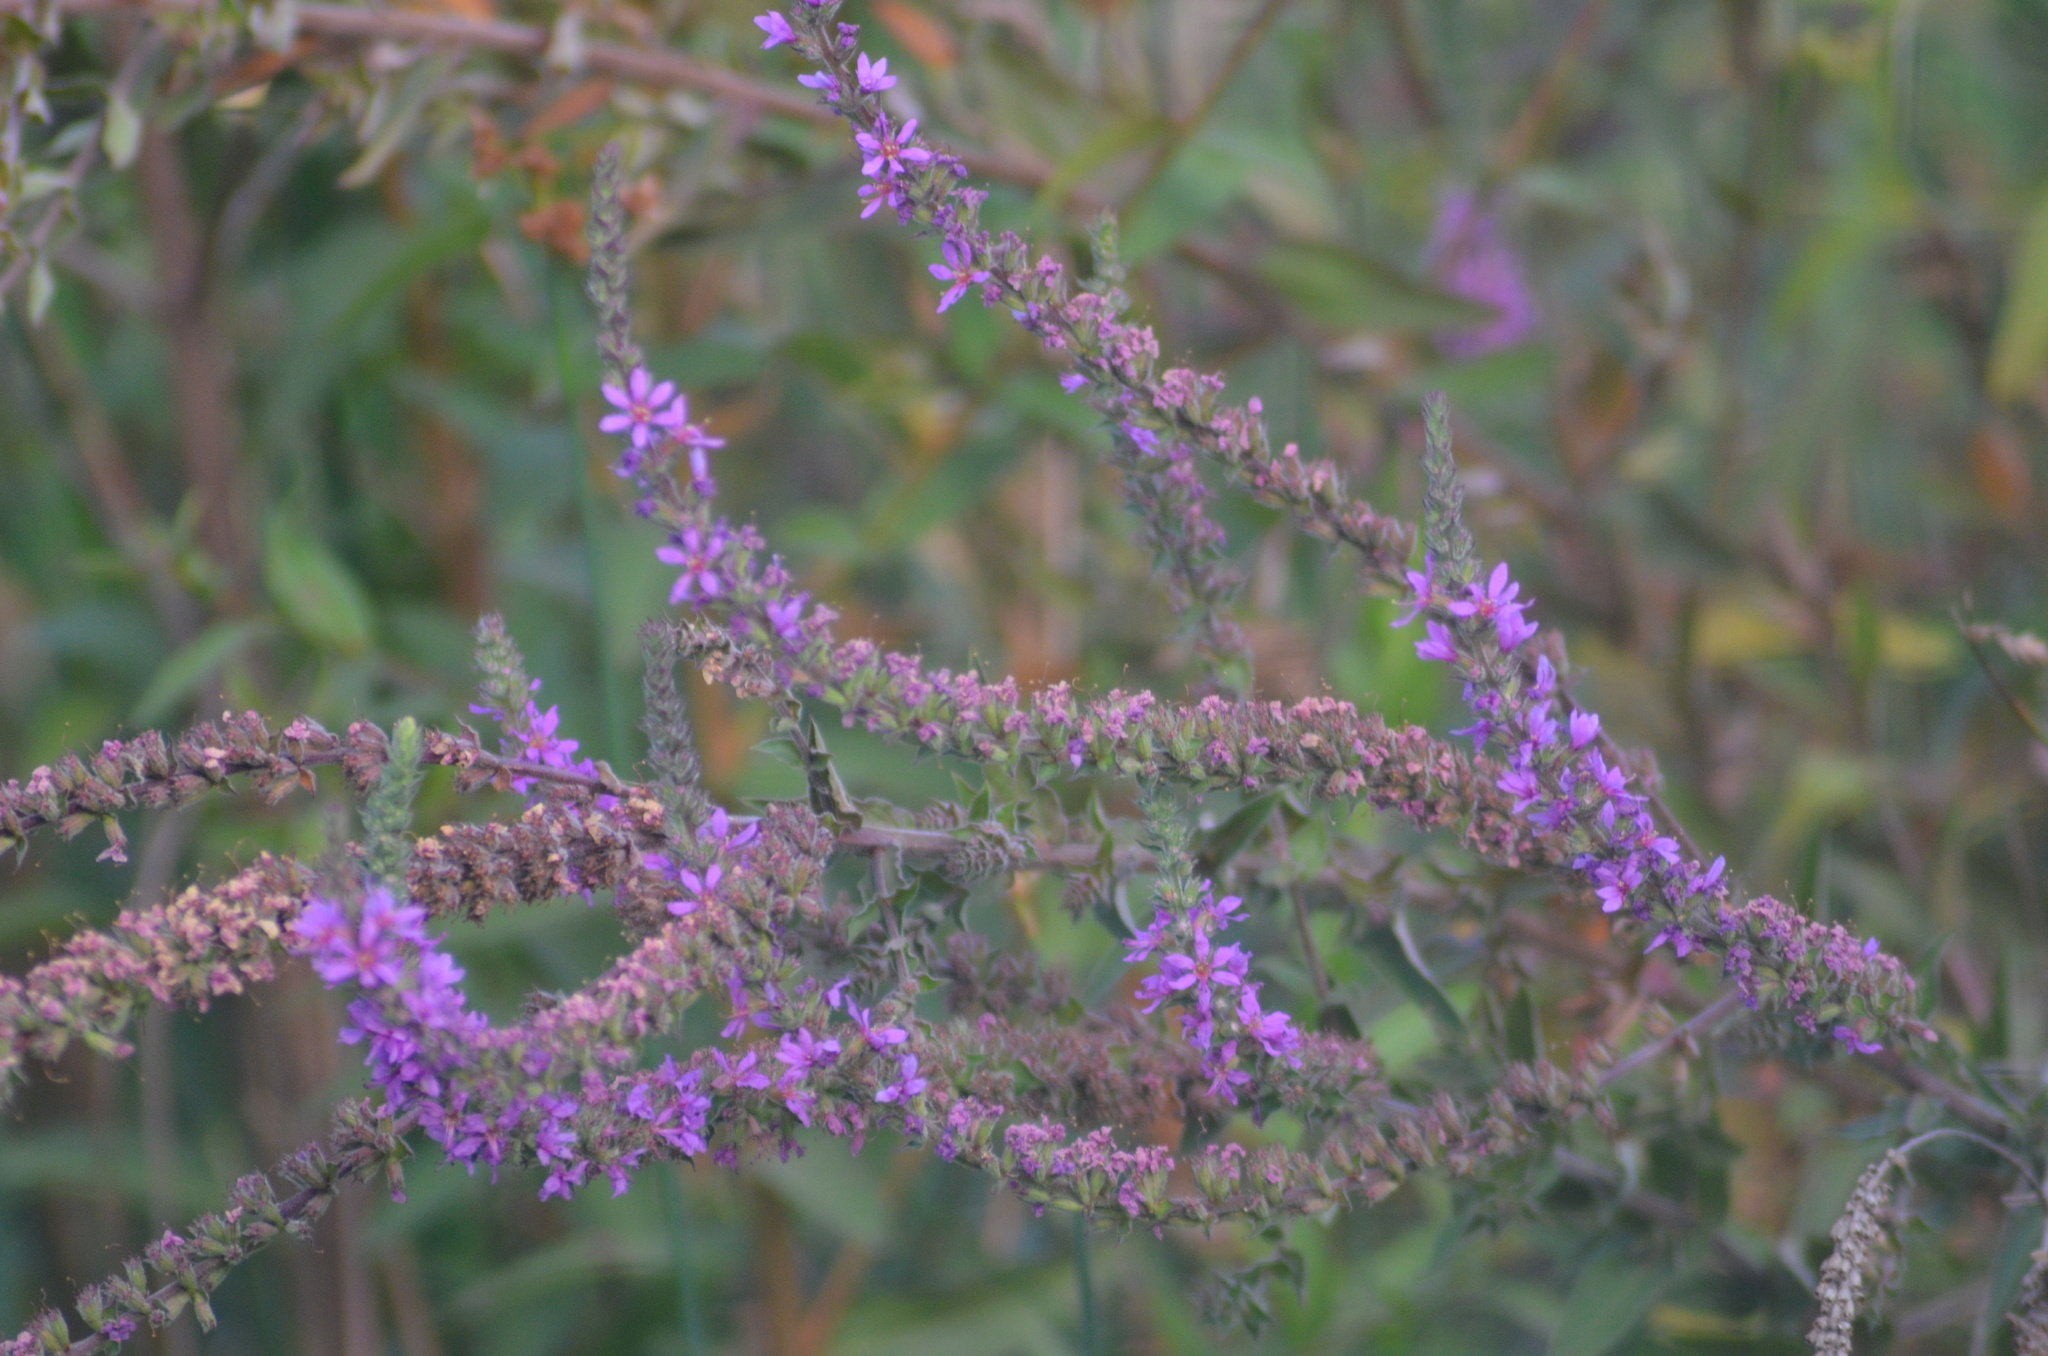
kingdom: Plantae
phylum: Tracheophyta
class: Magnoliopsida
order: Myrtales
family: Lythraceae
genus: Lythrum
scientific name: Lythrum salicaria
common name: Purple loosestrife
